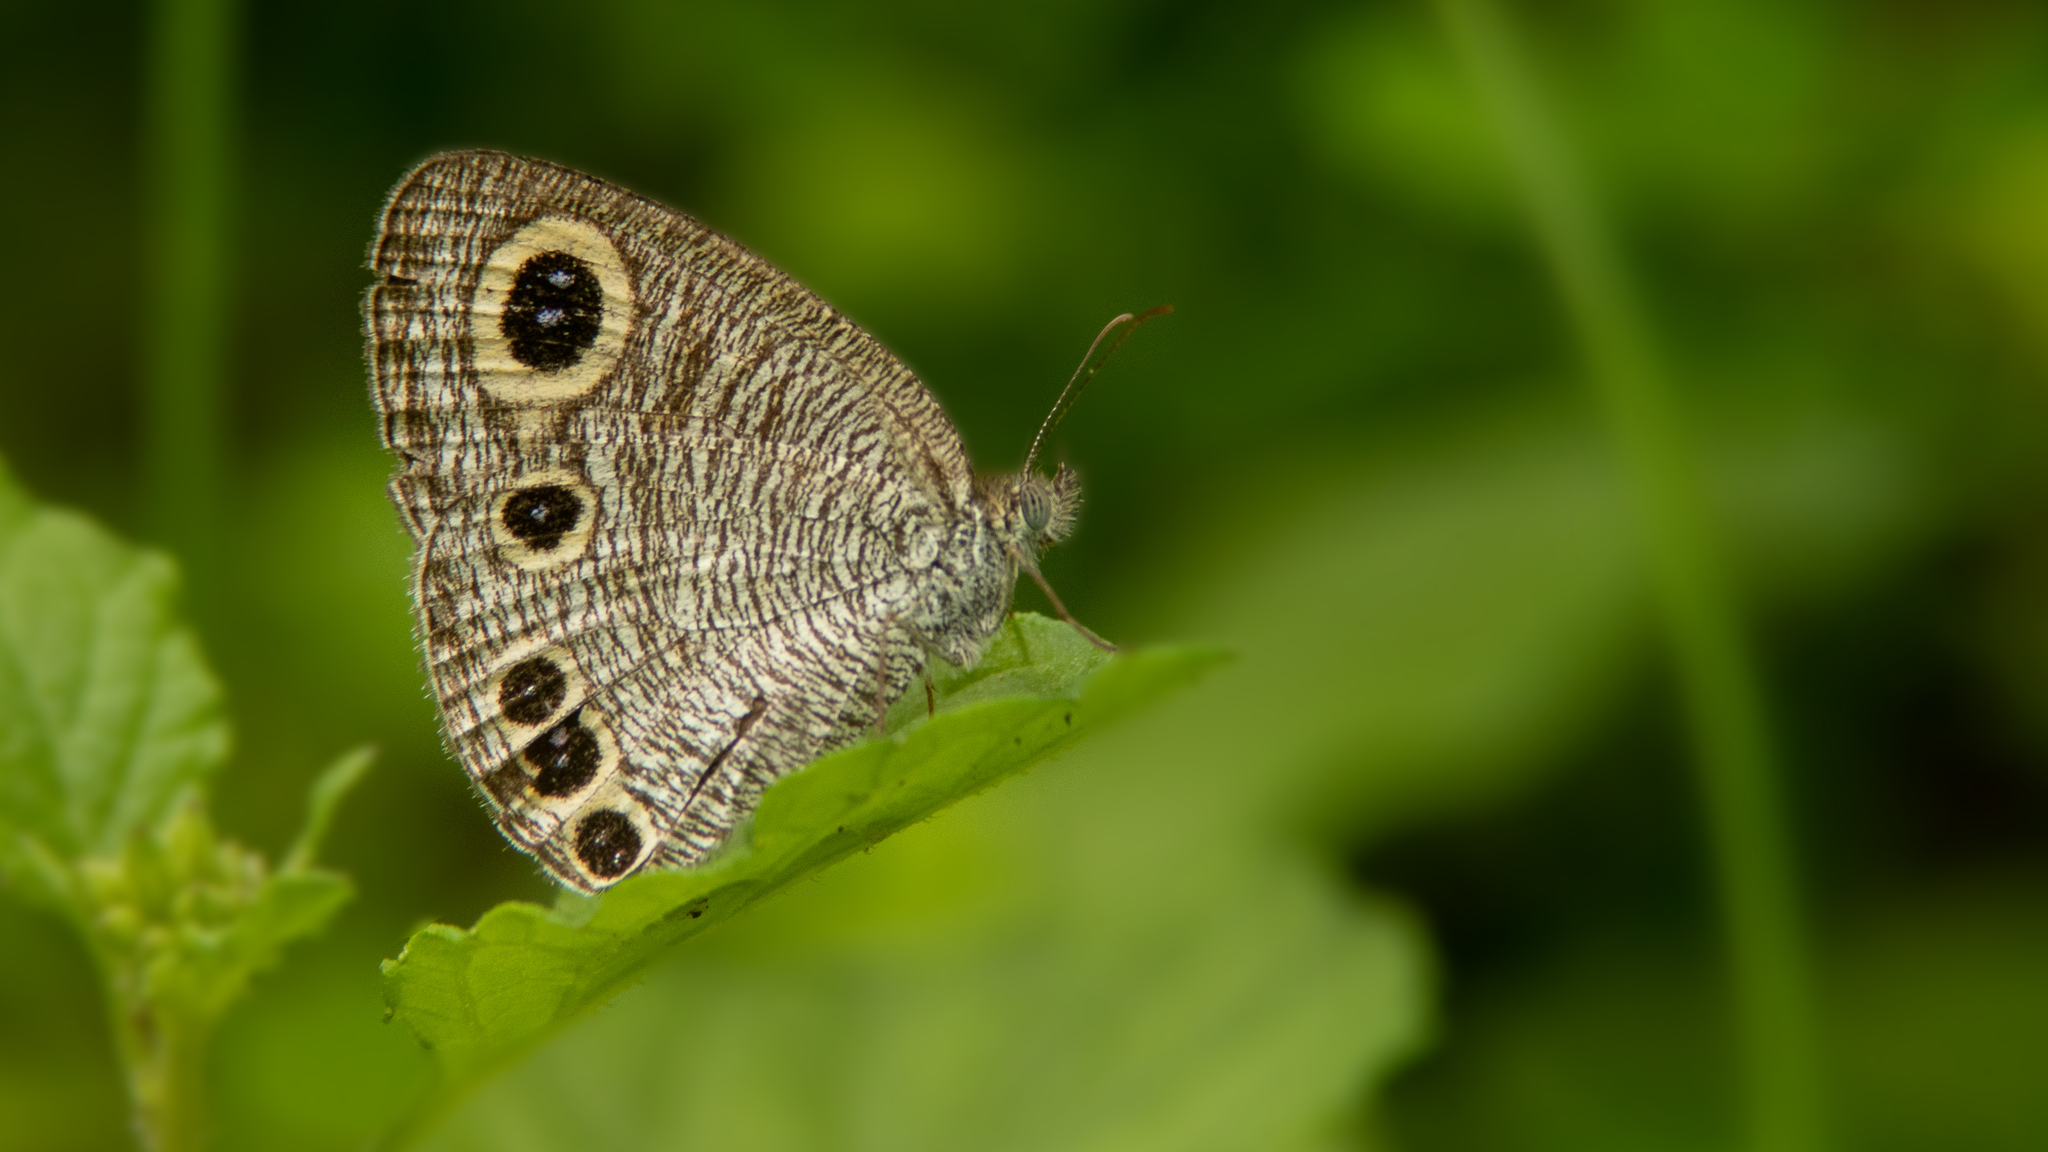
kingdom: Animalia
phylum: Arthropoda
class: Insecta
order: Lepidoptera
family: Nymphalidae
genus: Ypthima
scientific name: Ypthima huebneri
